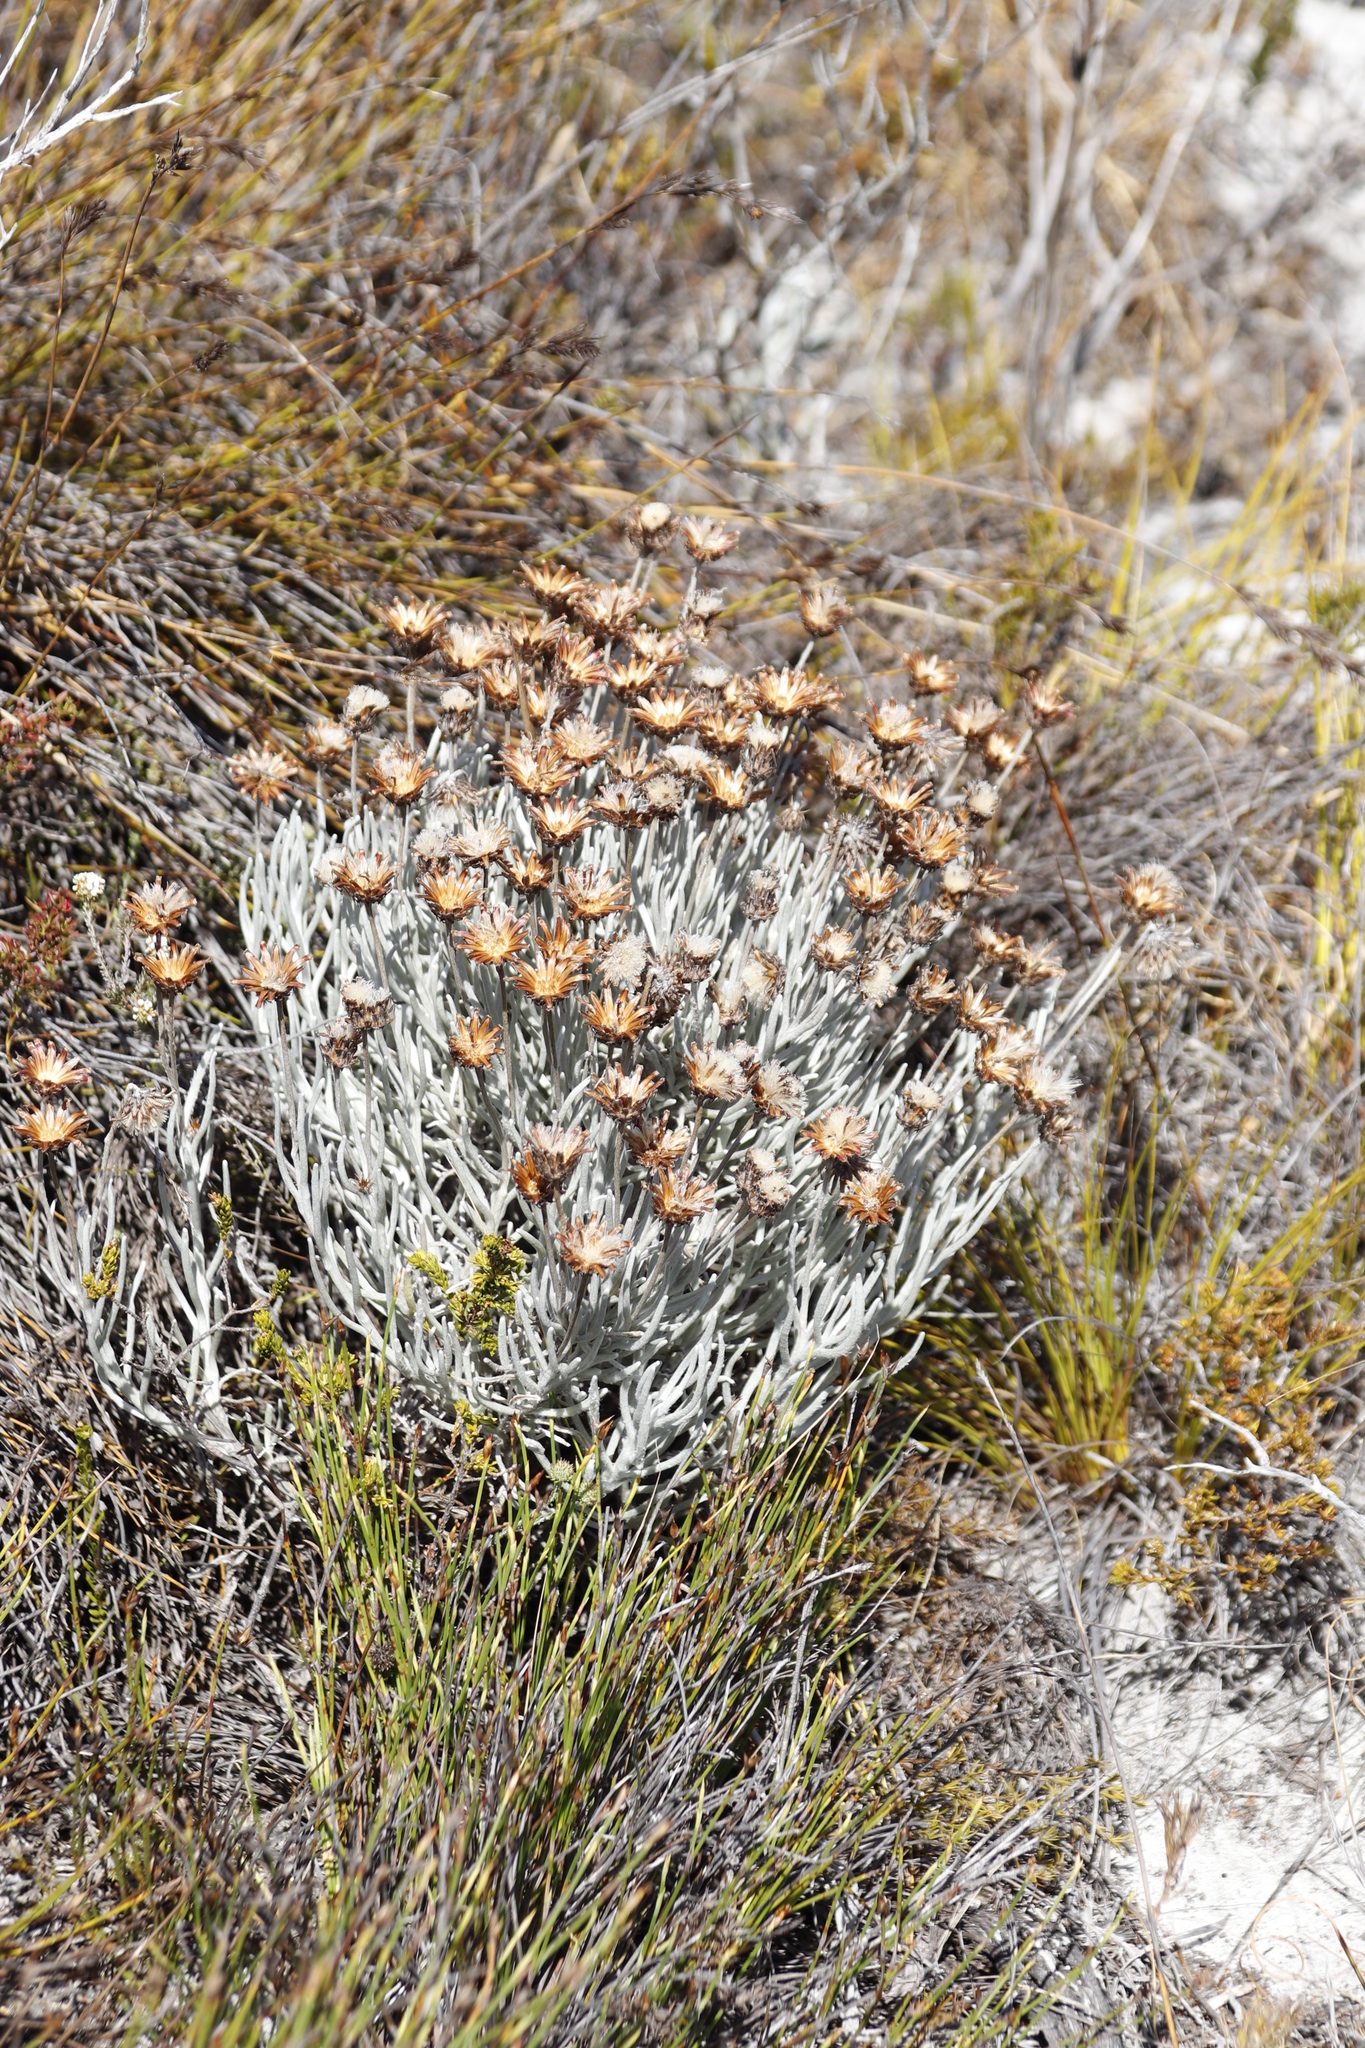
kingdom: Plantae
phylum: Tracheophyta
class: Magnoliopsida
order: Asterales
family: Asteraceae
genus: Syncarpha
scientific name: Syncarpha gnaphaloides
